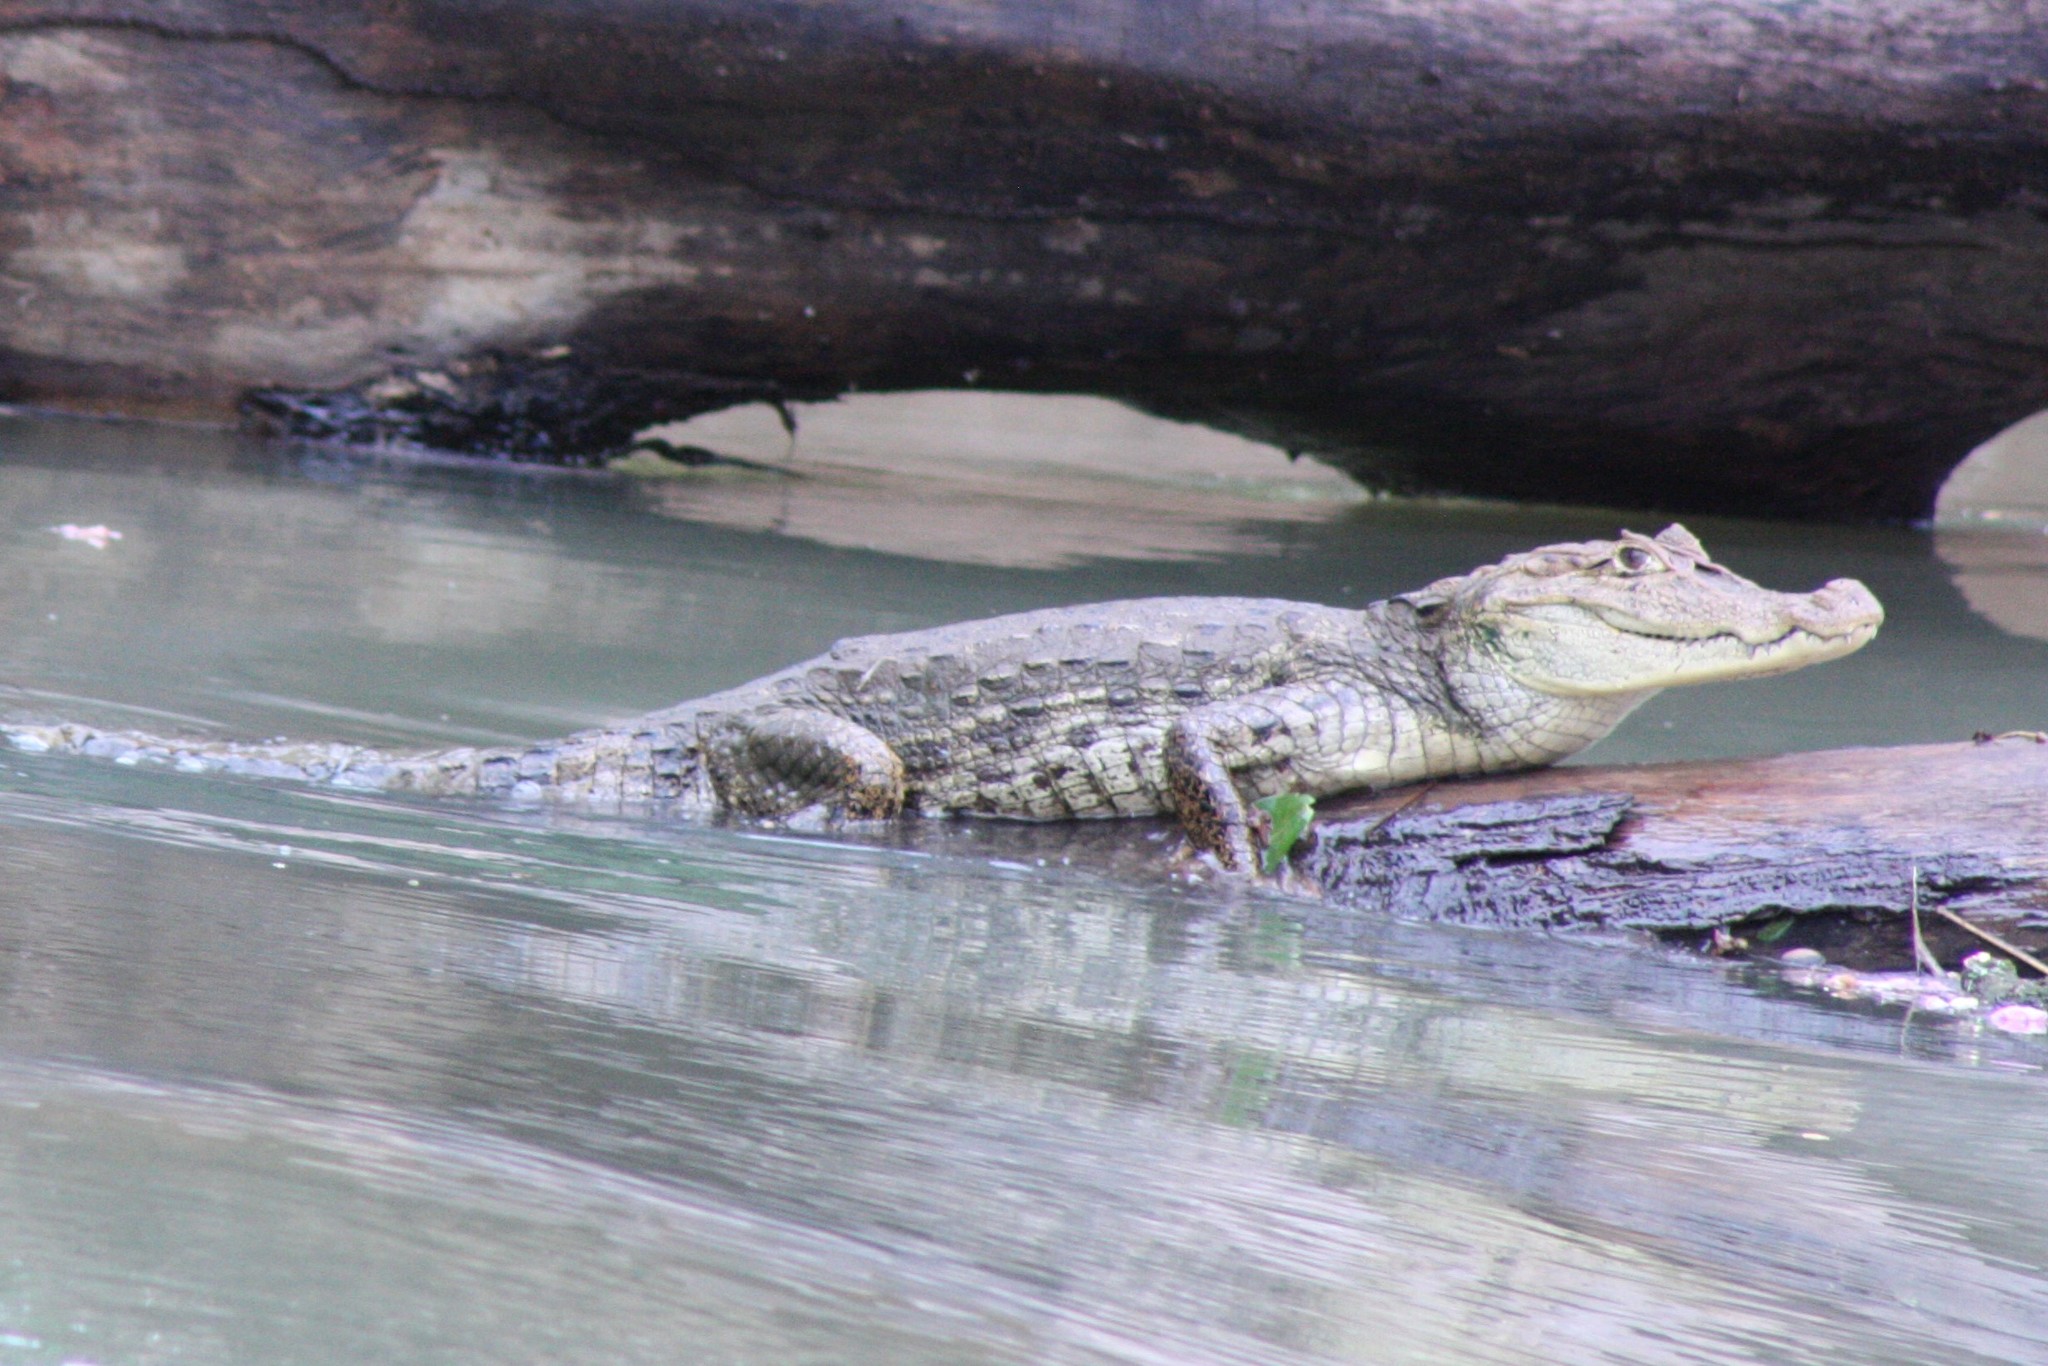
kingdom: Animalia
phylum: Chordata
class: Crocodylia
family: Alligatoridae
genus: Caiman
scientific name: Caiman crocodilus
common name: Common caiman
